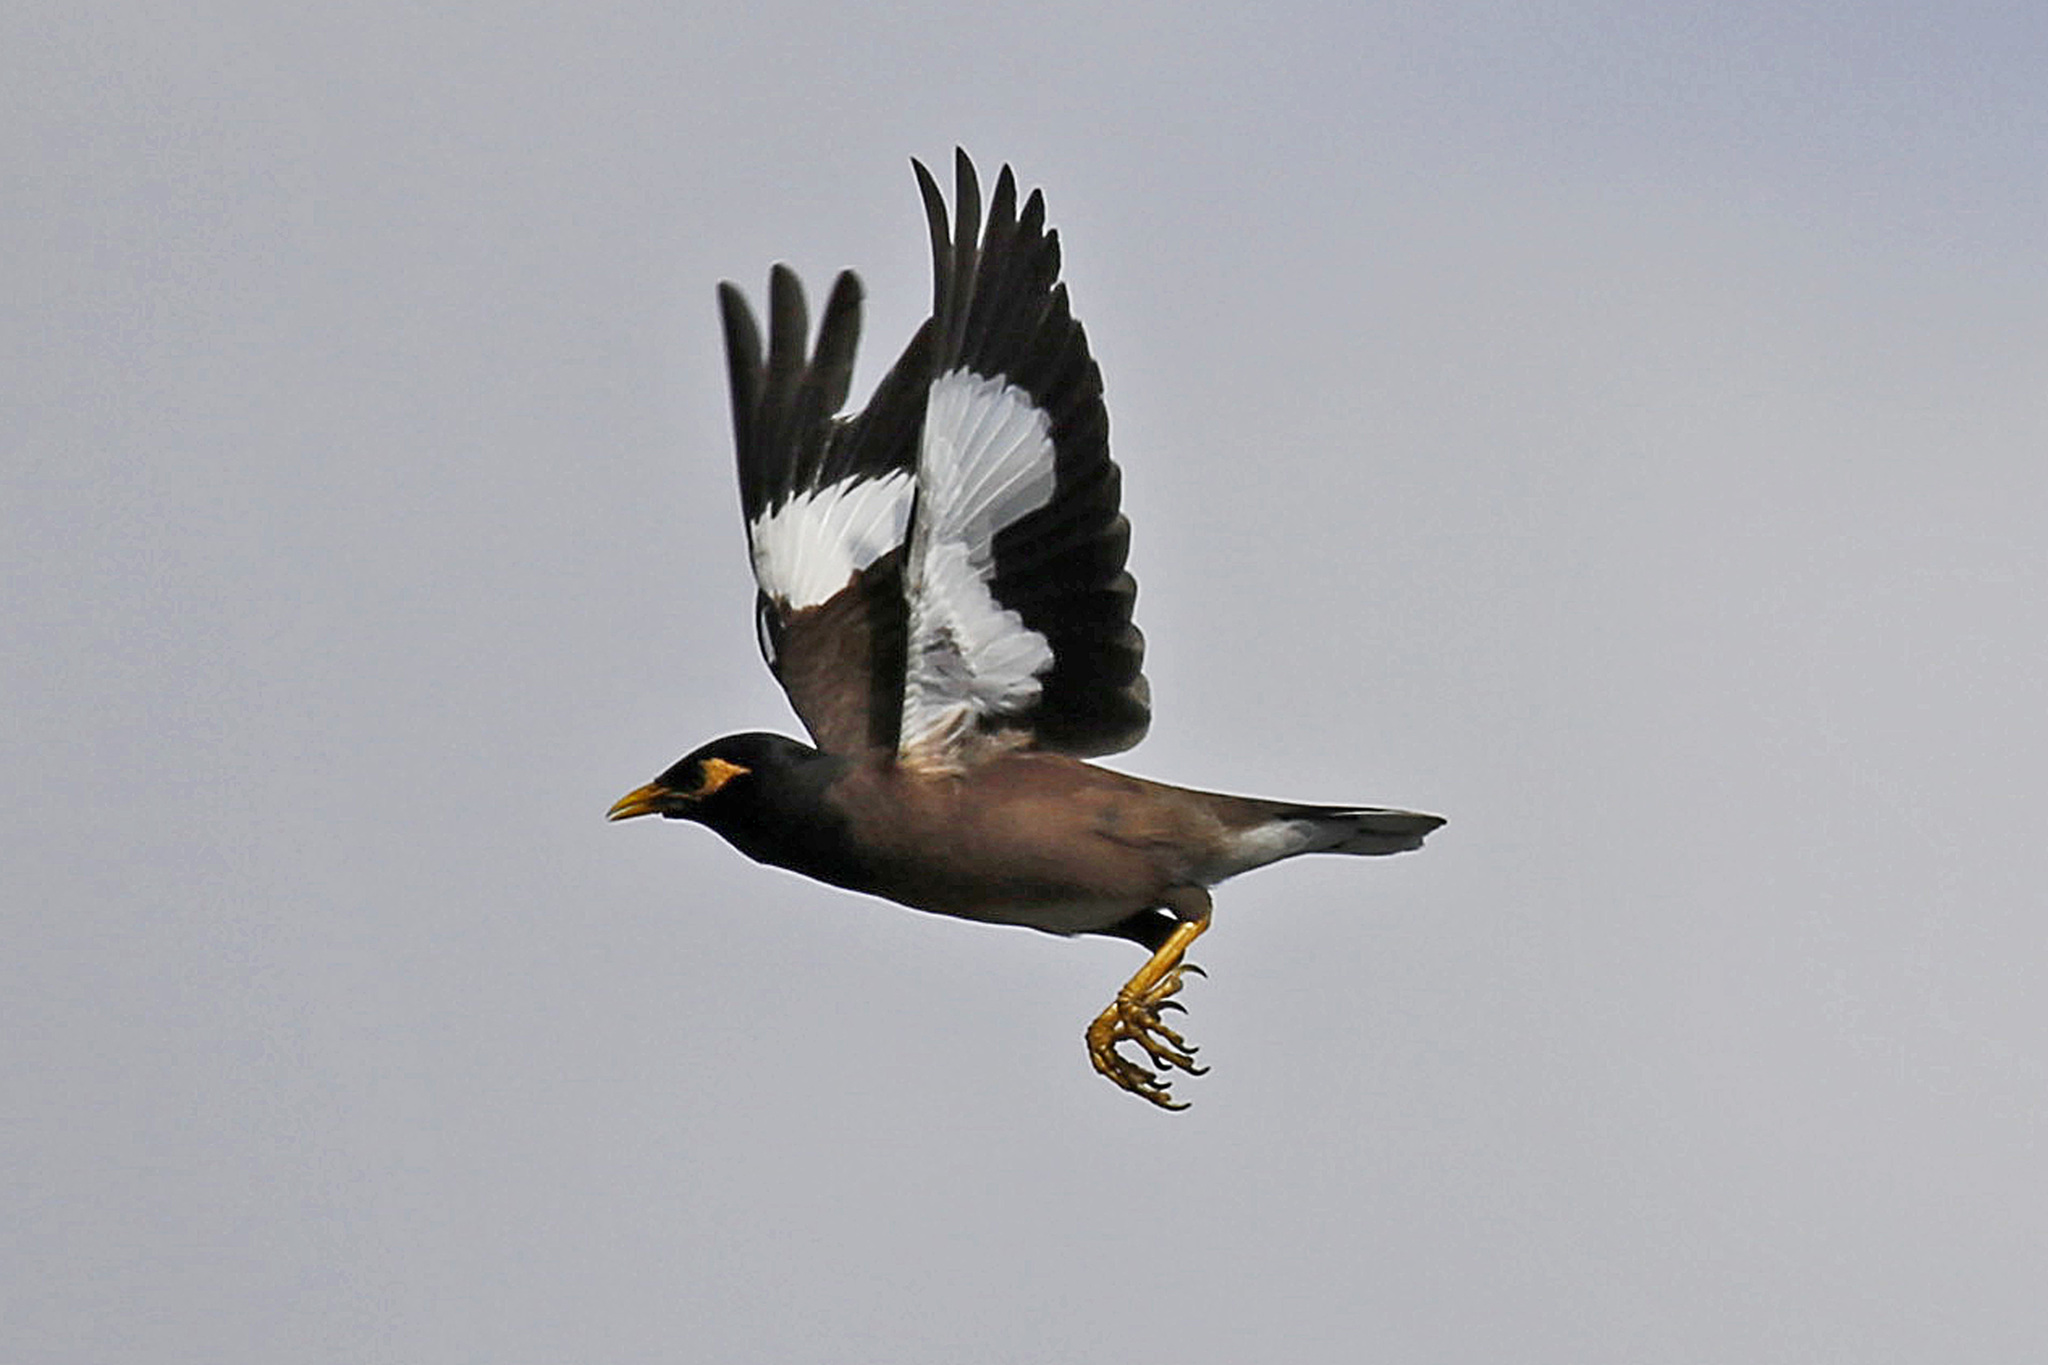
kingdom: Animalia
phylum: Chordata
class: Aves
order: Passeriformes
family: Sturnidae
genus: Acridotheres
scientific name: Acridotheres tristis
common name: Common myna
